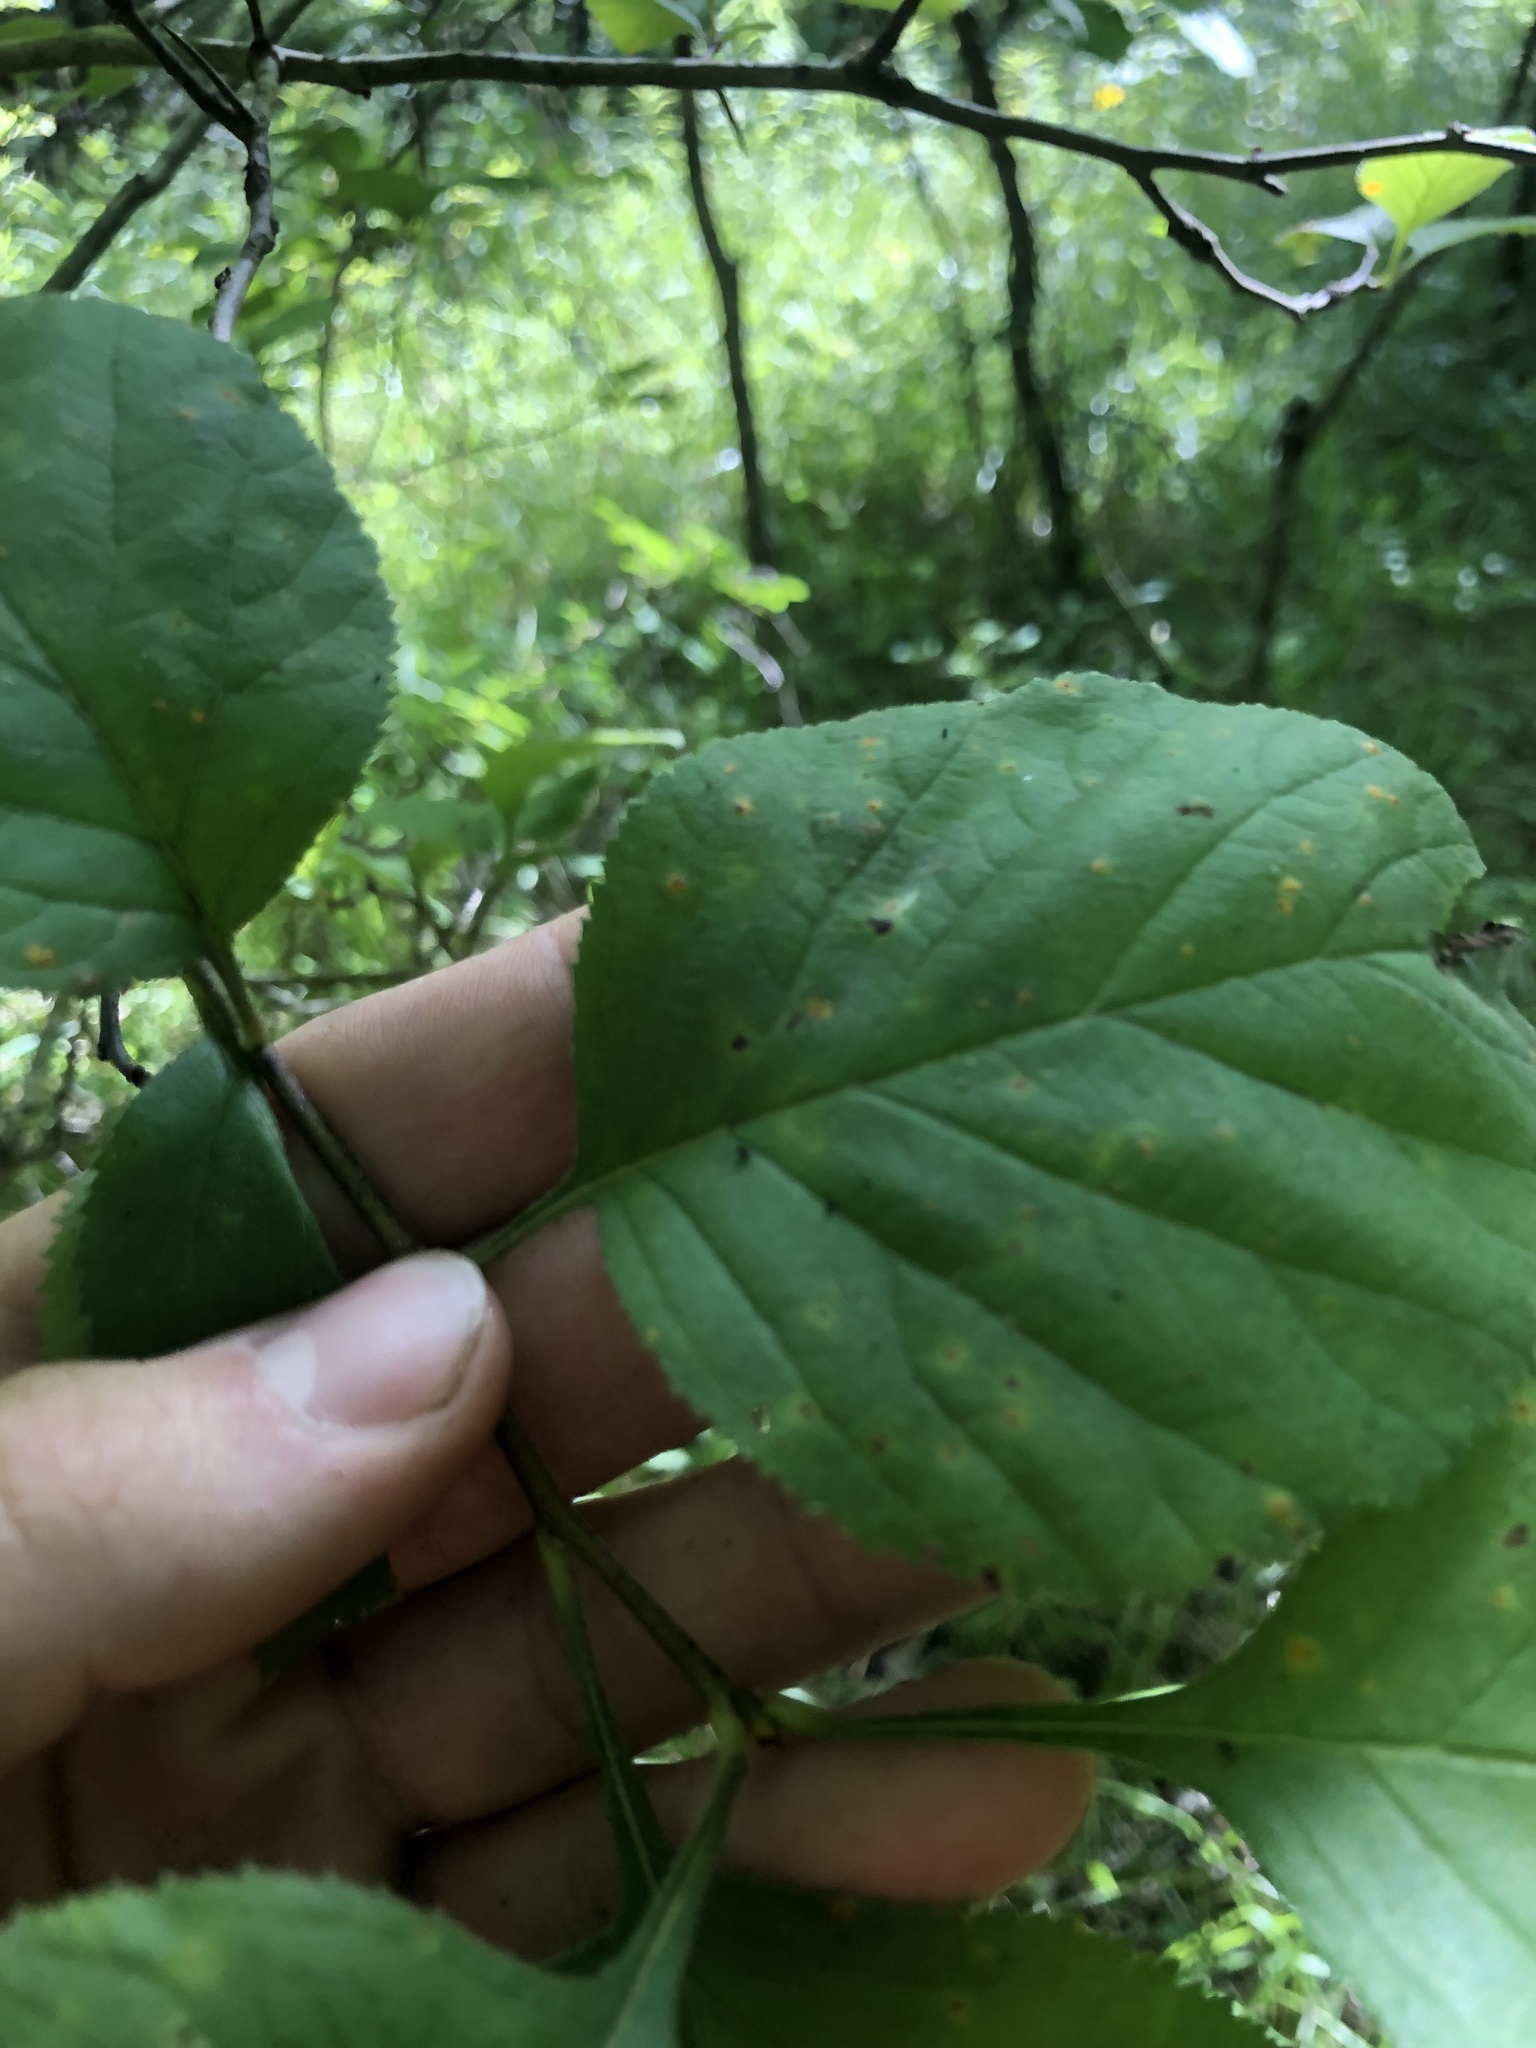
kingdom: Plantae
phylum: Tracheophyta
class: Magnoliopsida
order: Rosales
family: Rosaceae
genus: Crataegus
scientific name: Crataegus triflora
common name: Three-flower hawthorn
